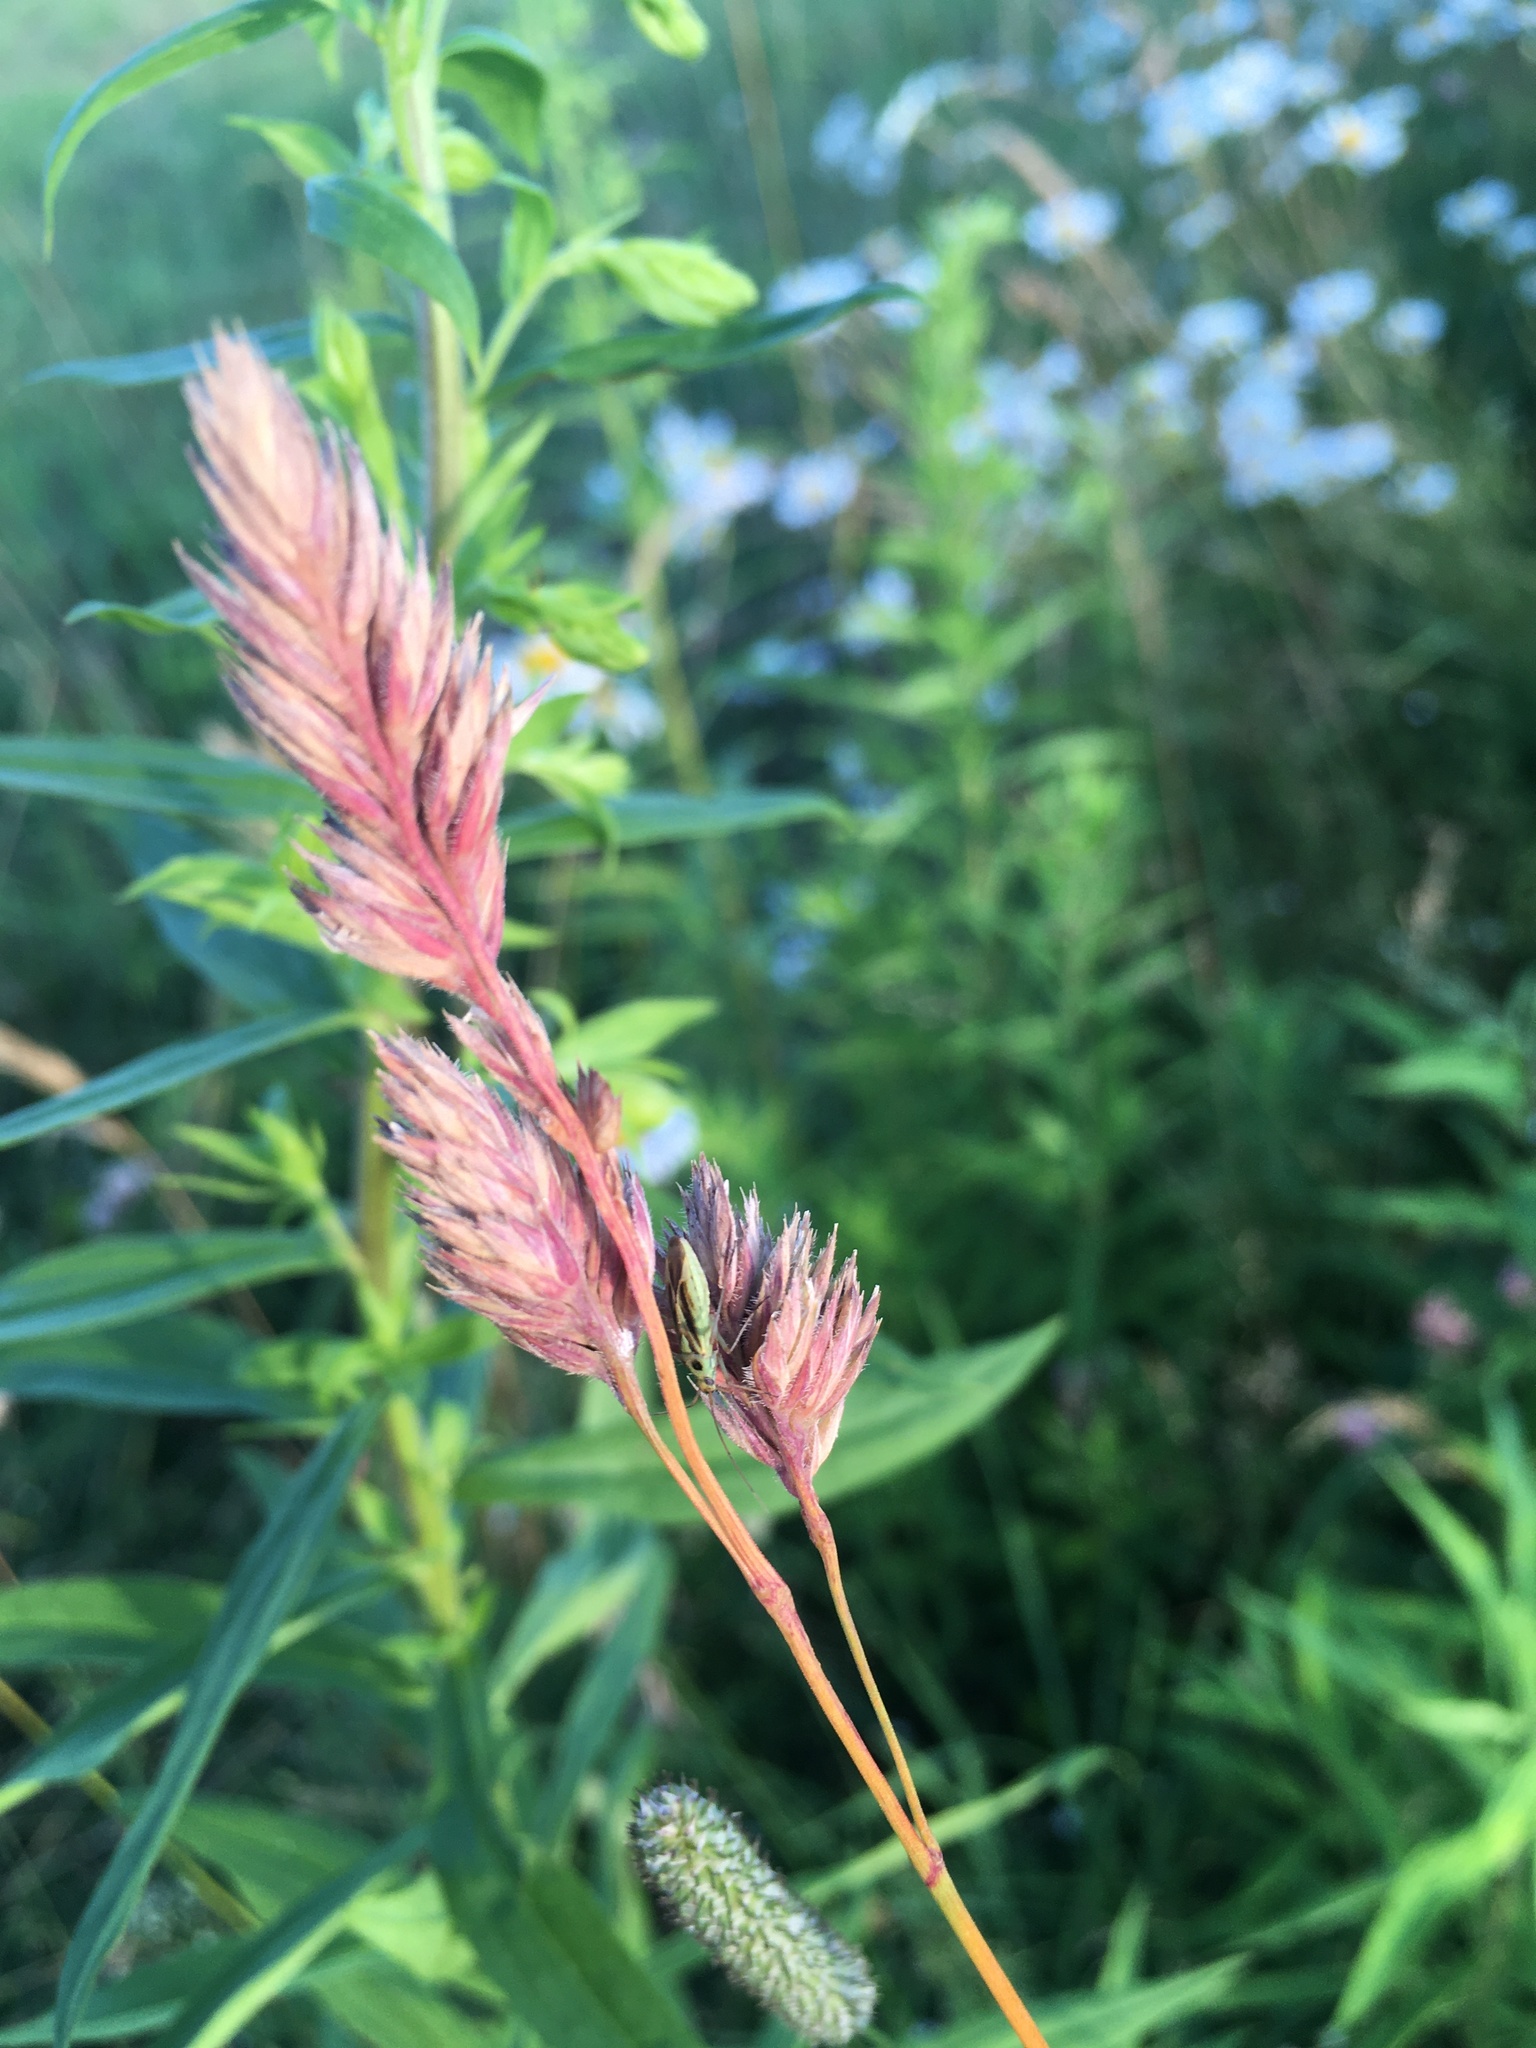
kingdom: Plantae
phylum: Tracheophyta
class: Liliopsida
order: Poales
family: Poaceae
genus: Dactylis
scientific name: Dactylis glomerata
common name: Orchardgrass
